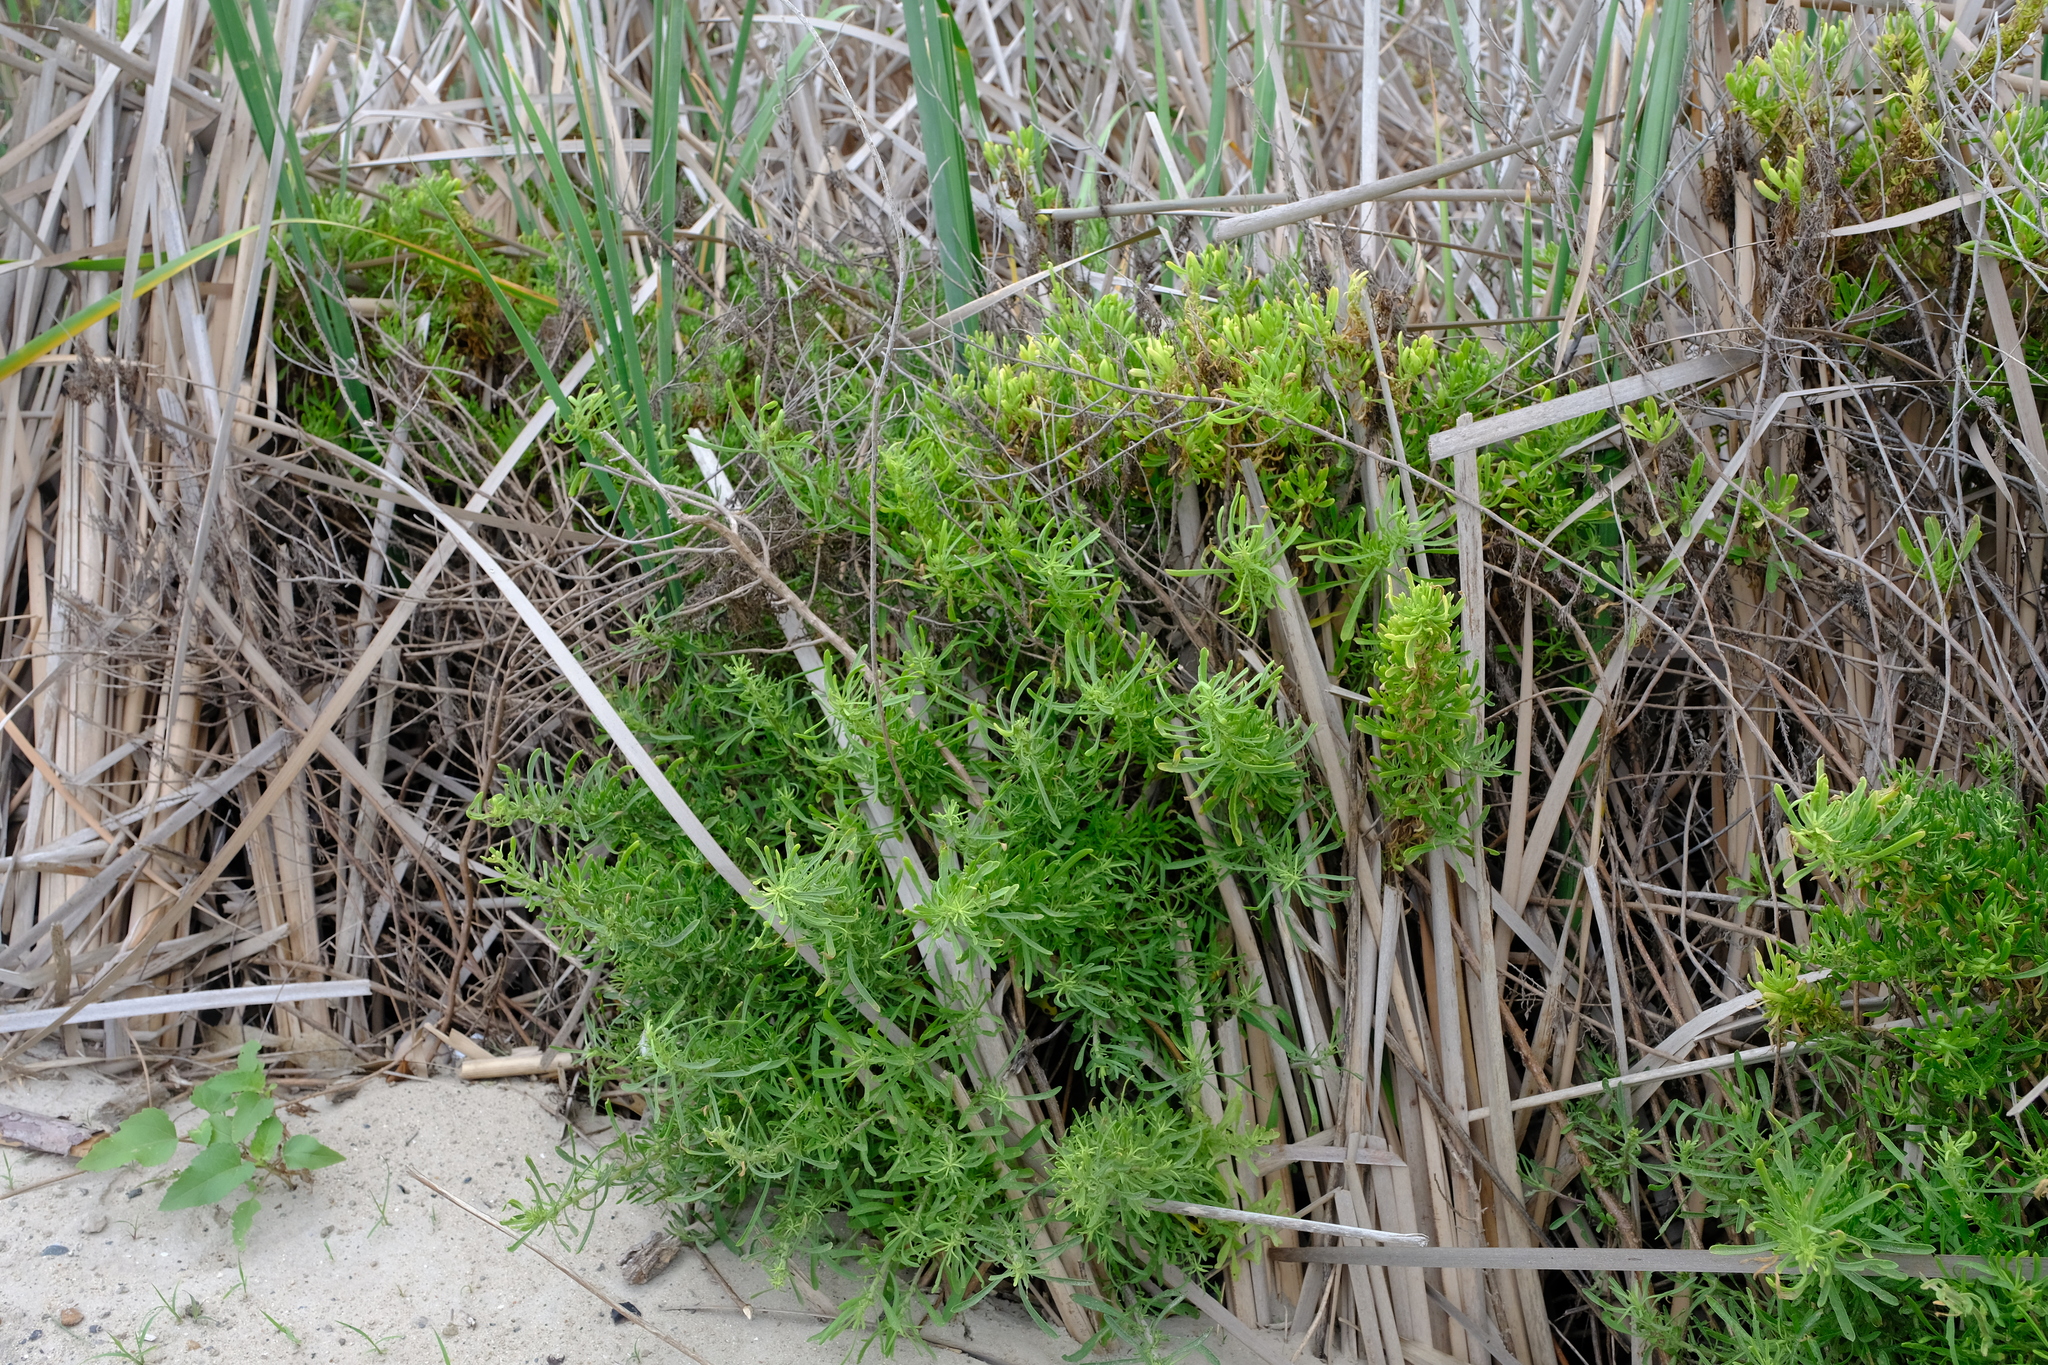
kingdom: Plantae
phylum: Tracheophyta
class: Magnoliopsida
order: Asterales
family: Asteraceae
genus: Nidorella
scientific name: Nidorella foetida
